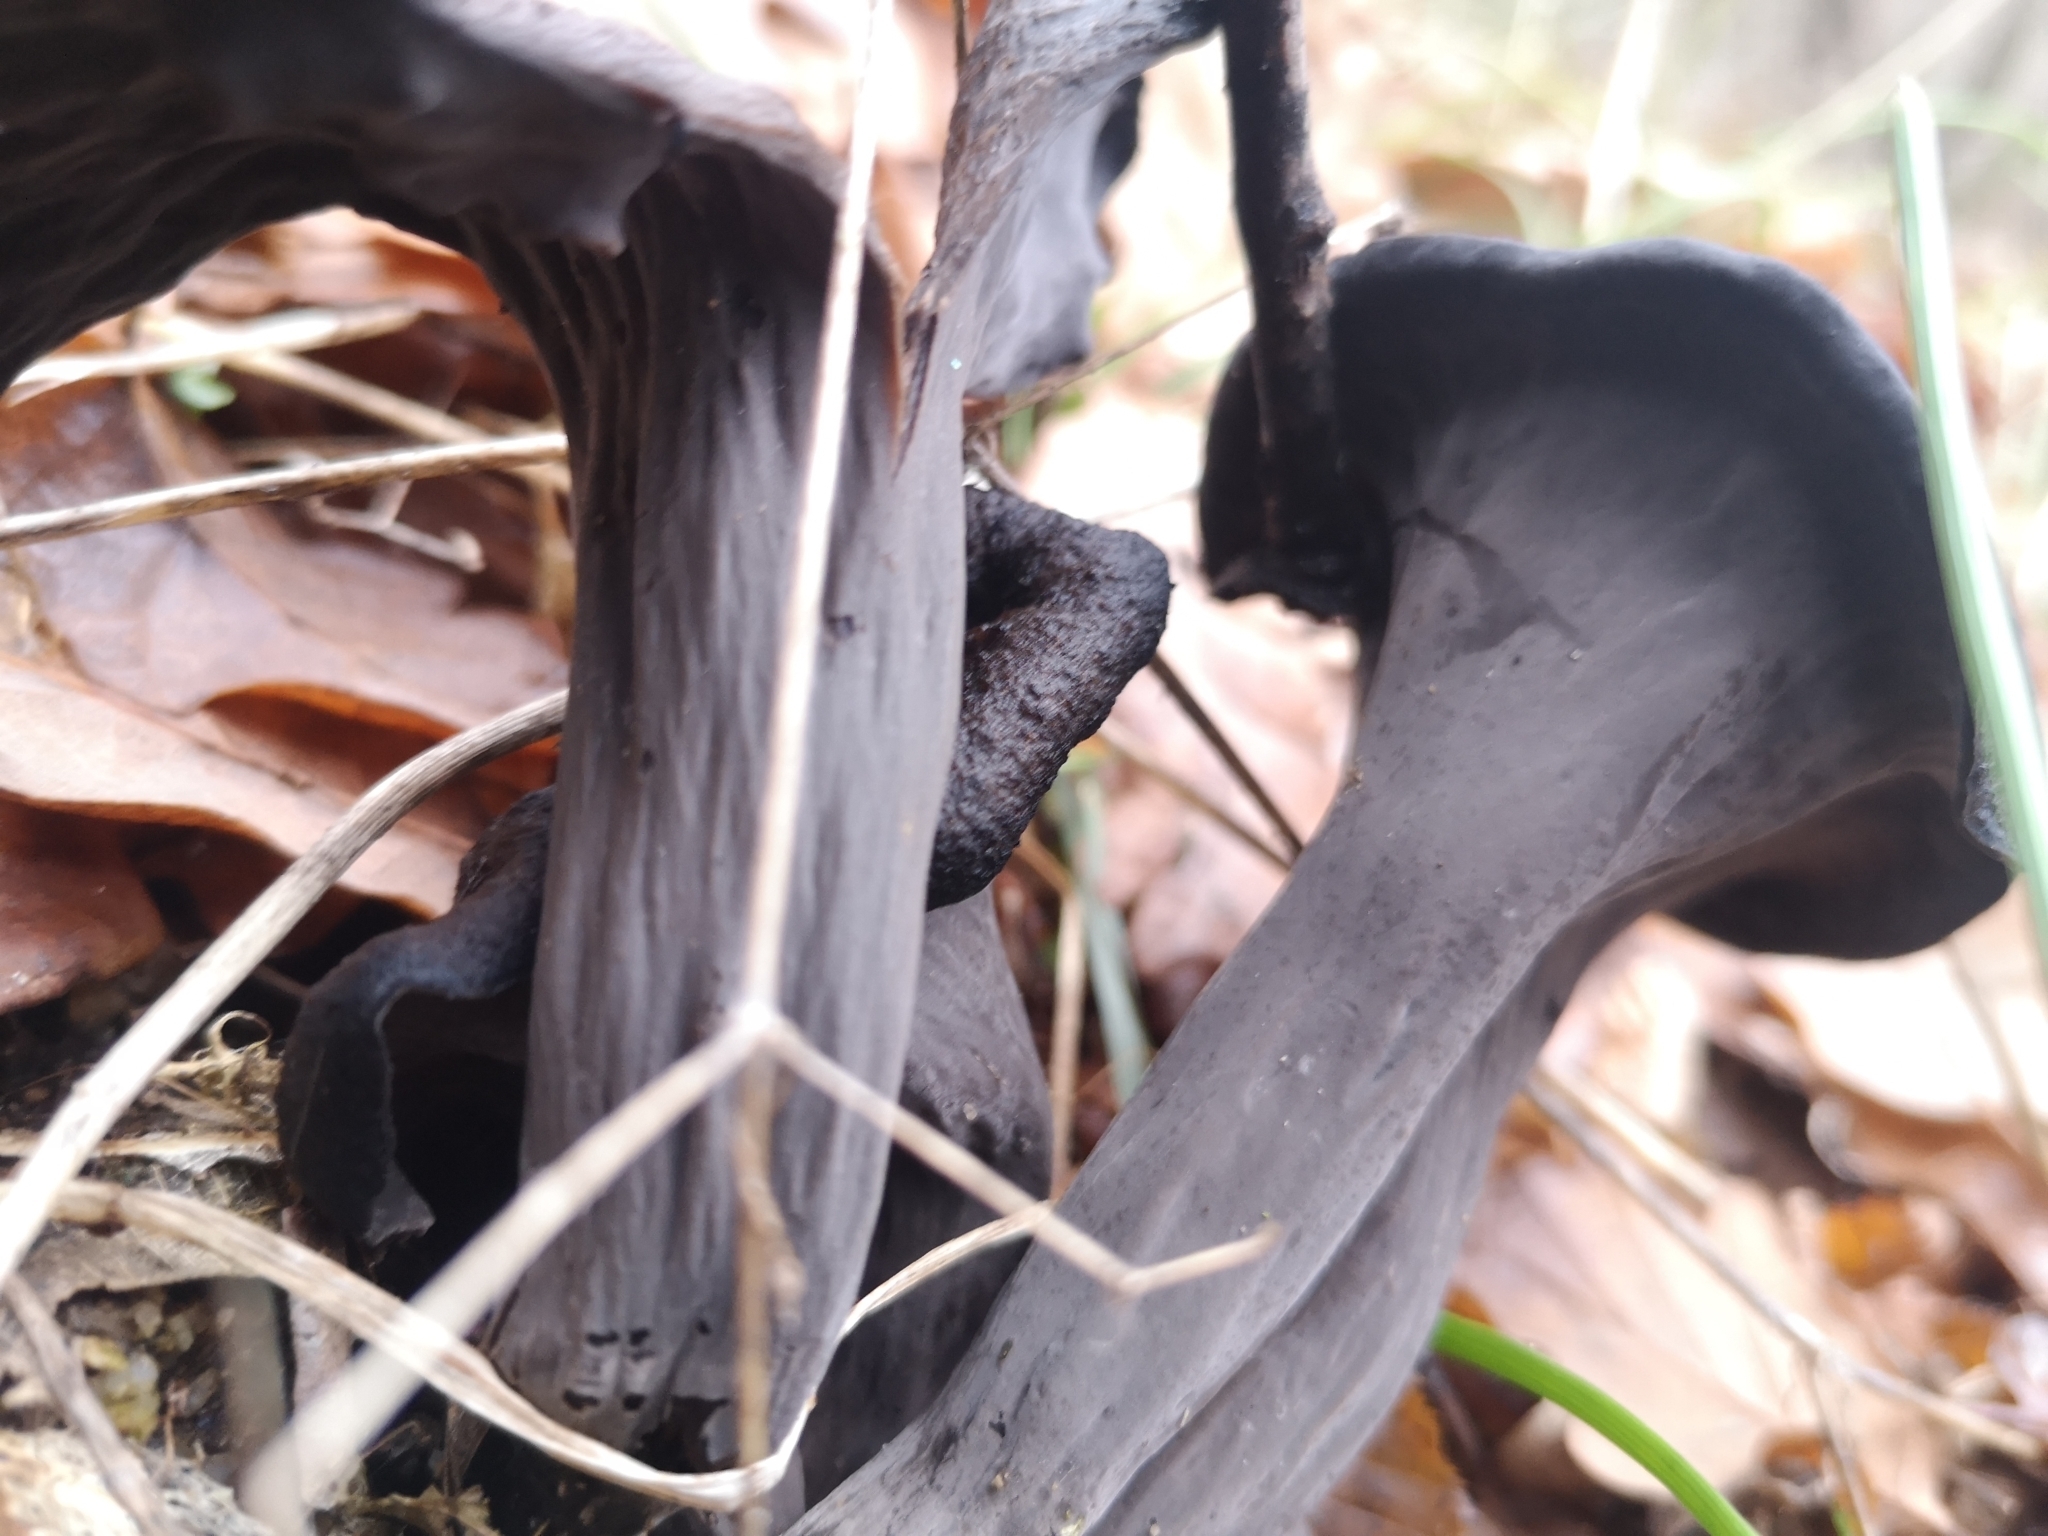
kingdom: Fungi
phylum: Basidiomycota
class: Agaricomycetes
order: Cantharellales
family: Hydnaceae
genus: Craterellus
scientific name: Craterellus cornucopioides
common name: Horn of plenty
